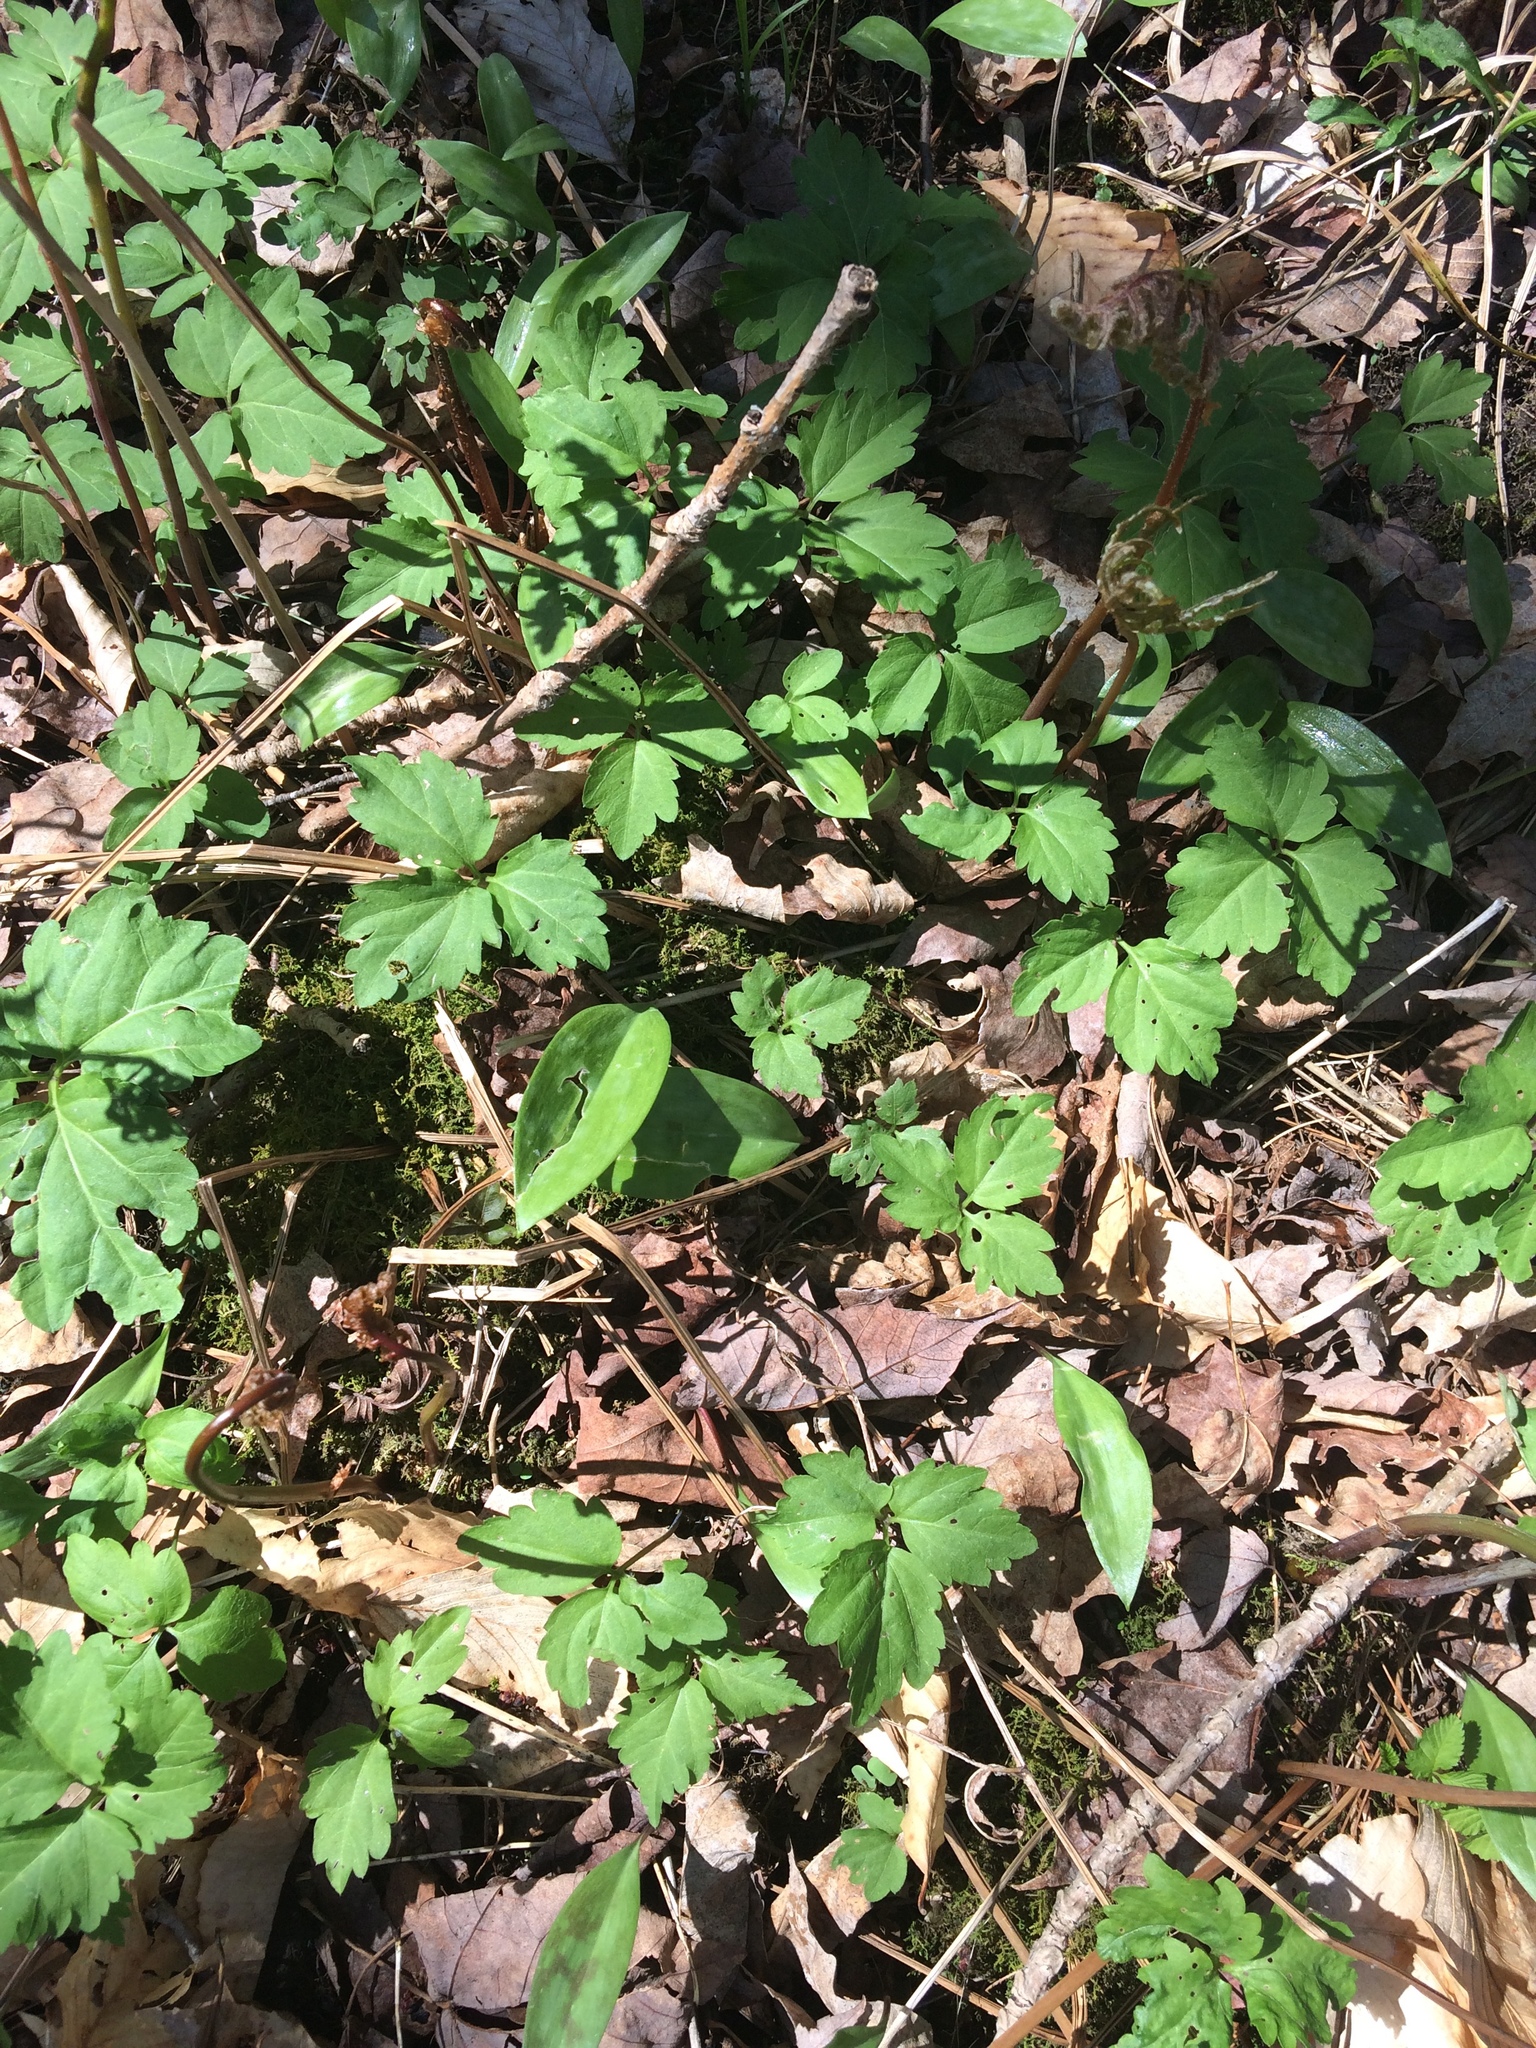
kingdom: Plantae
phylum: Tracheophyta
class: Magnoliopsida
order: Brassicales
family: Brassicaceae
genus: Cardamine
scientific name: Cardamine diphylla
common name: Broad-leaved toothwort
